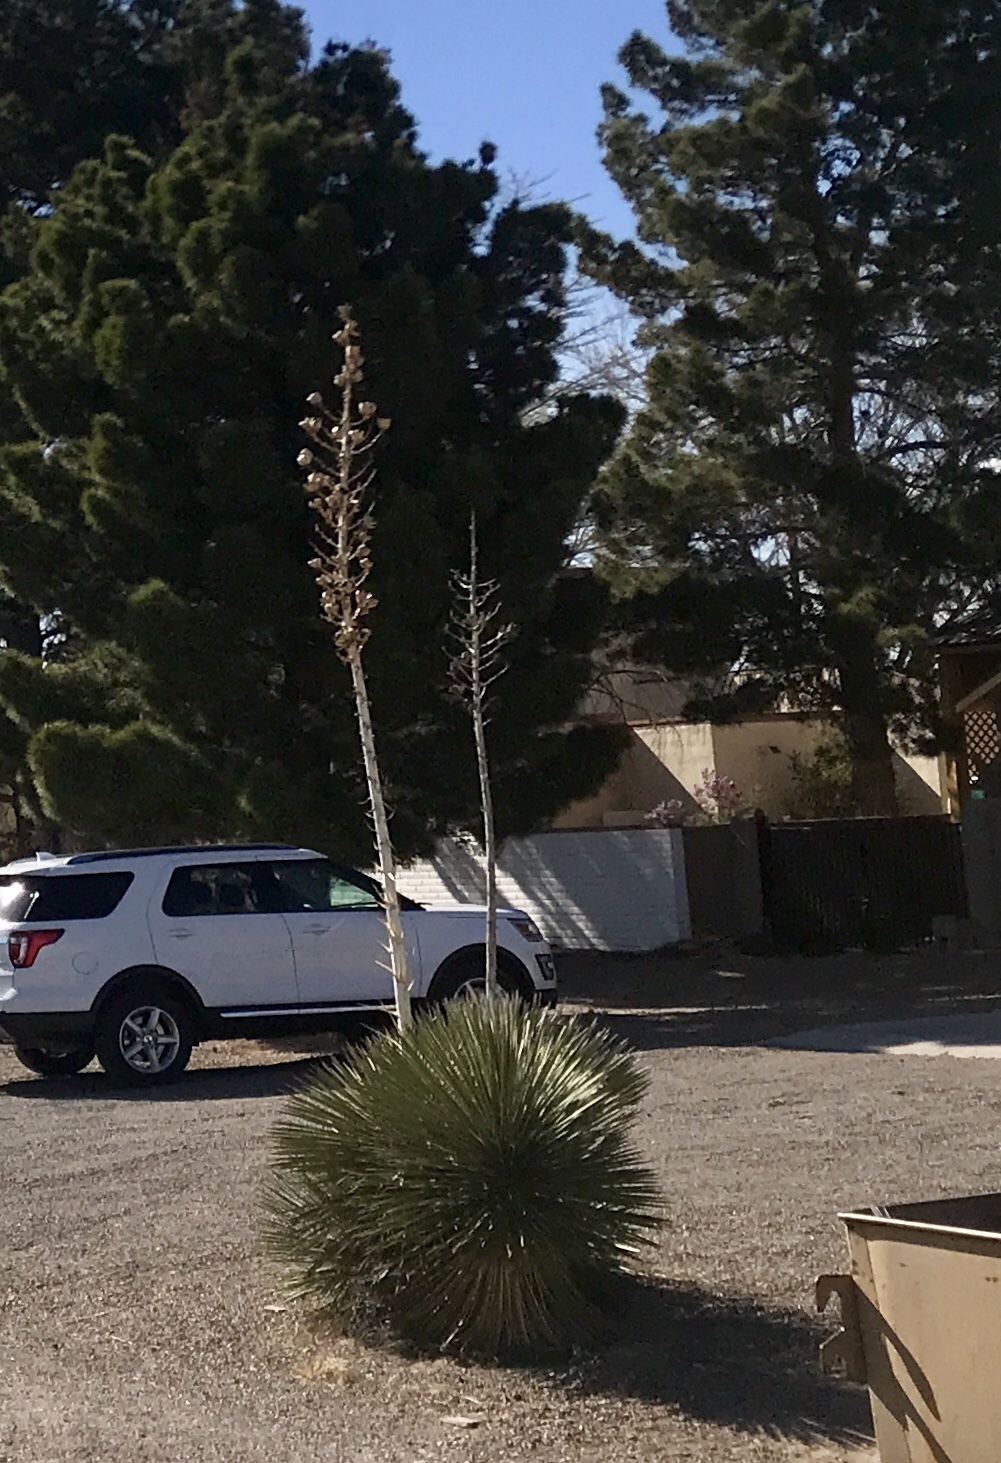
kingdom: Plantae
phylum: Tracheophyta
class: Liliopsida
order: Asparagales
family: Asparagaceae
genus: Yucca
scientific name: Yucca elata
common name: Palmella
